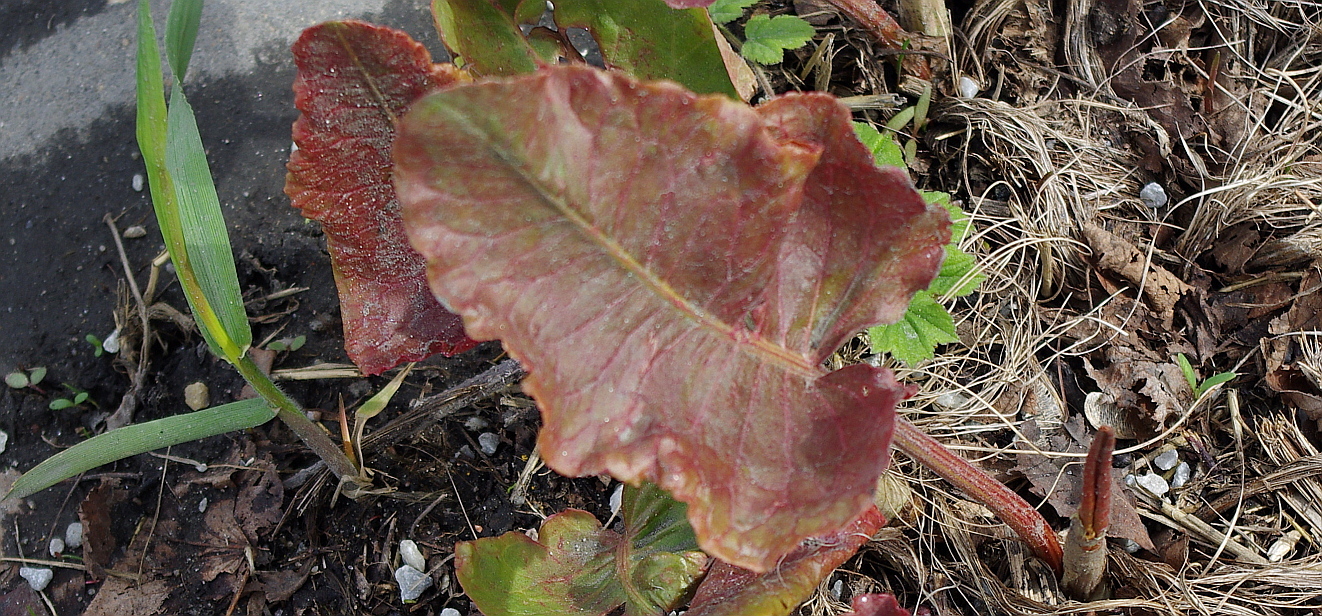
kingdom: Plantae
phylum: Tracheophyta
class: Magnoliopsida
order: Caryophyllales
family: Polygonaceae
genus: Rumex
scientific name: Rumex confertus
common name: Russian dock
